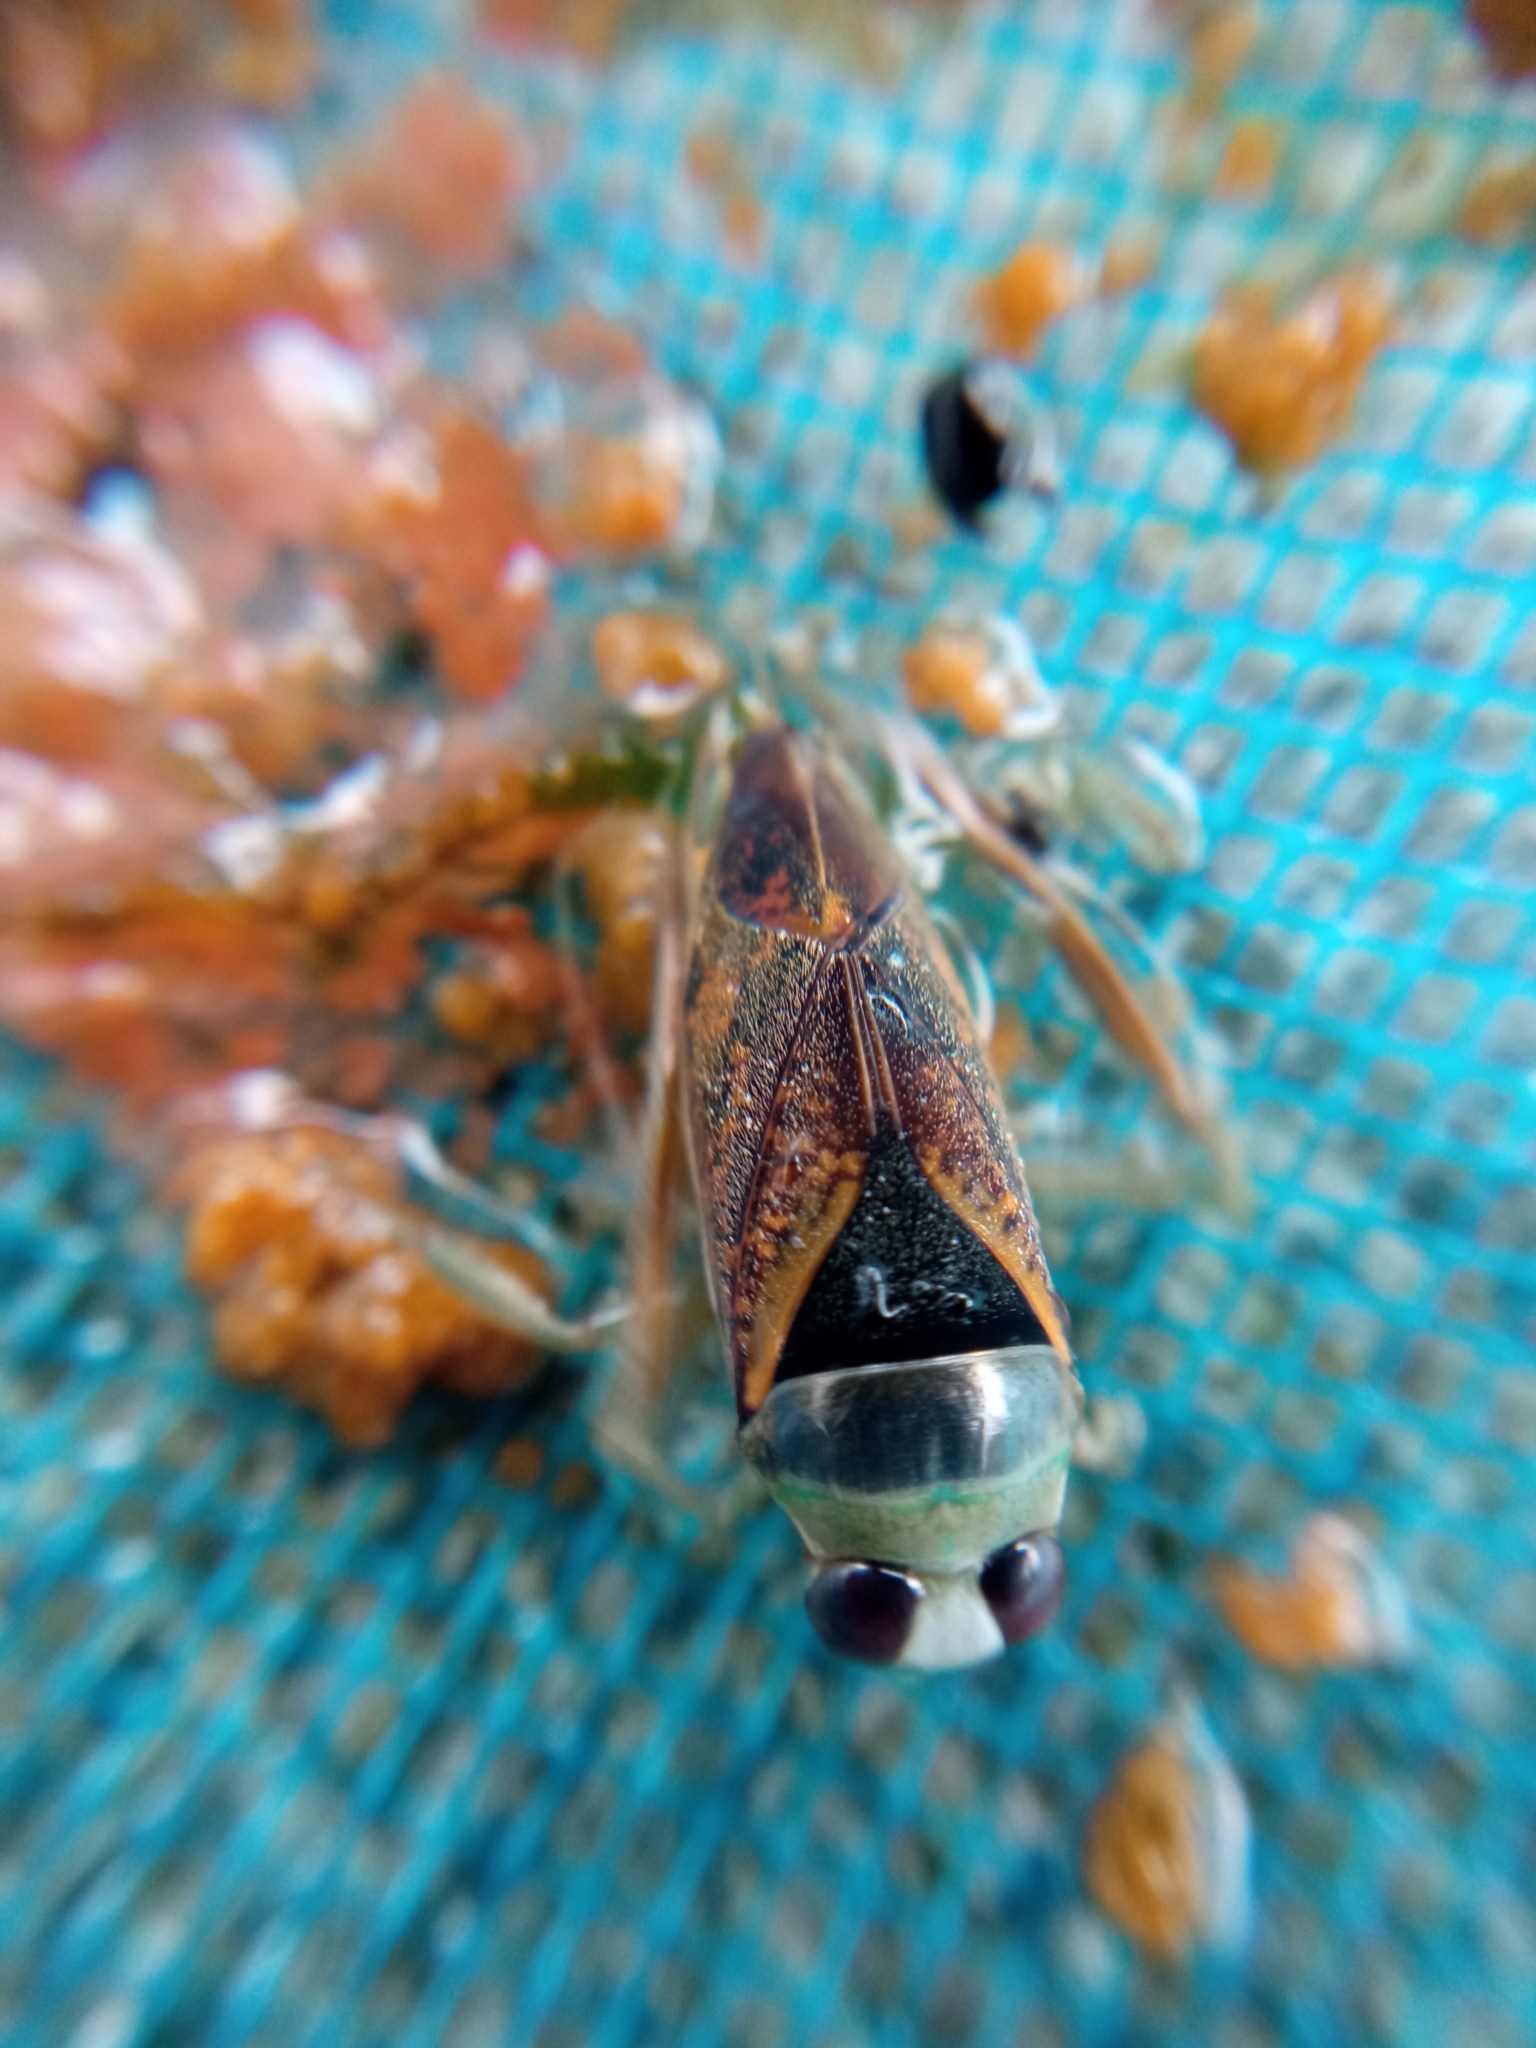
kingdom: Animalia
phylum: Arthropoda
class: Insecta
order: Hemiptera
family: Notonectidae
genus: Notonecta
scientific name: Notonecta maculata
